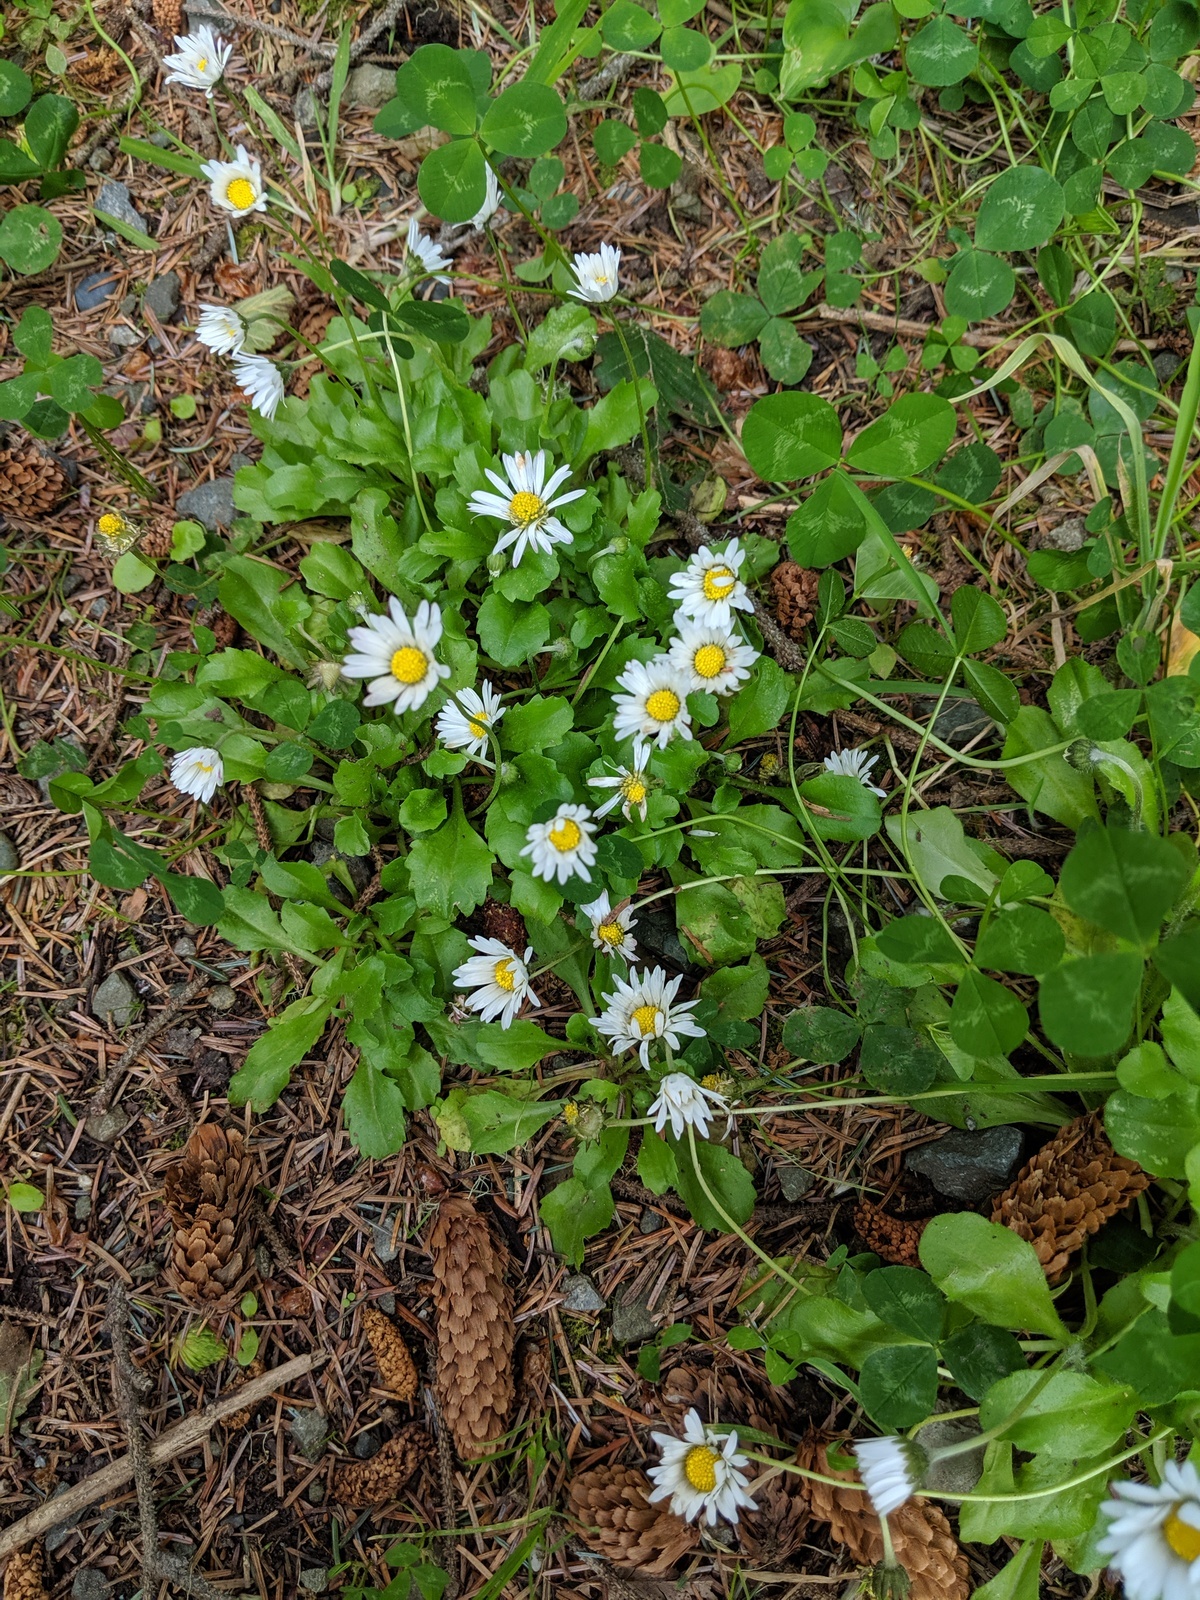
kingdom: Plantae
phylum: Tracheophyta
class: Magnoliopsida
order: Asterales
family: Asteraceae
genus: Bellis
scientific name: Bellis perennis
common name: Lawndaisy
